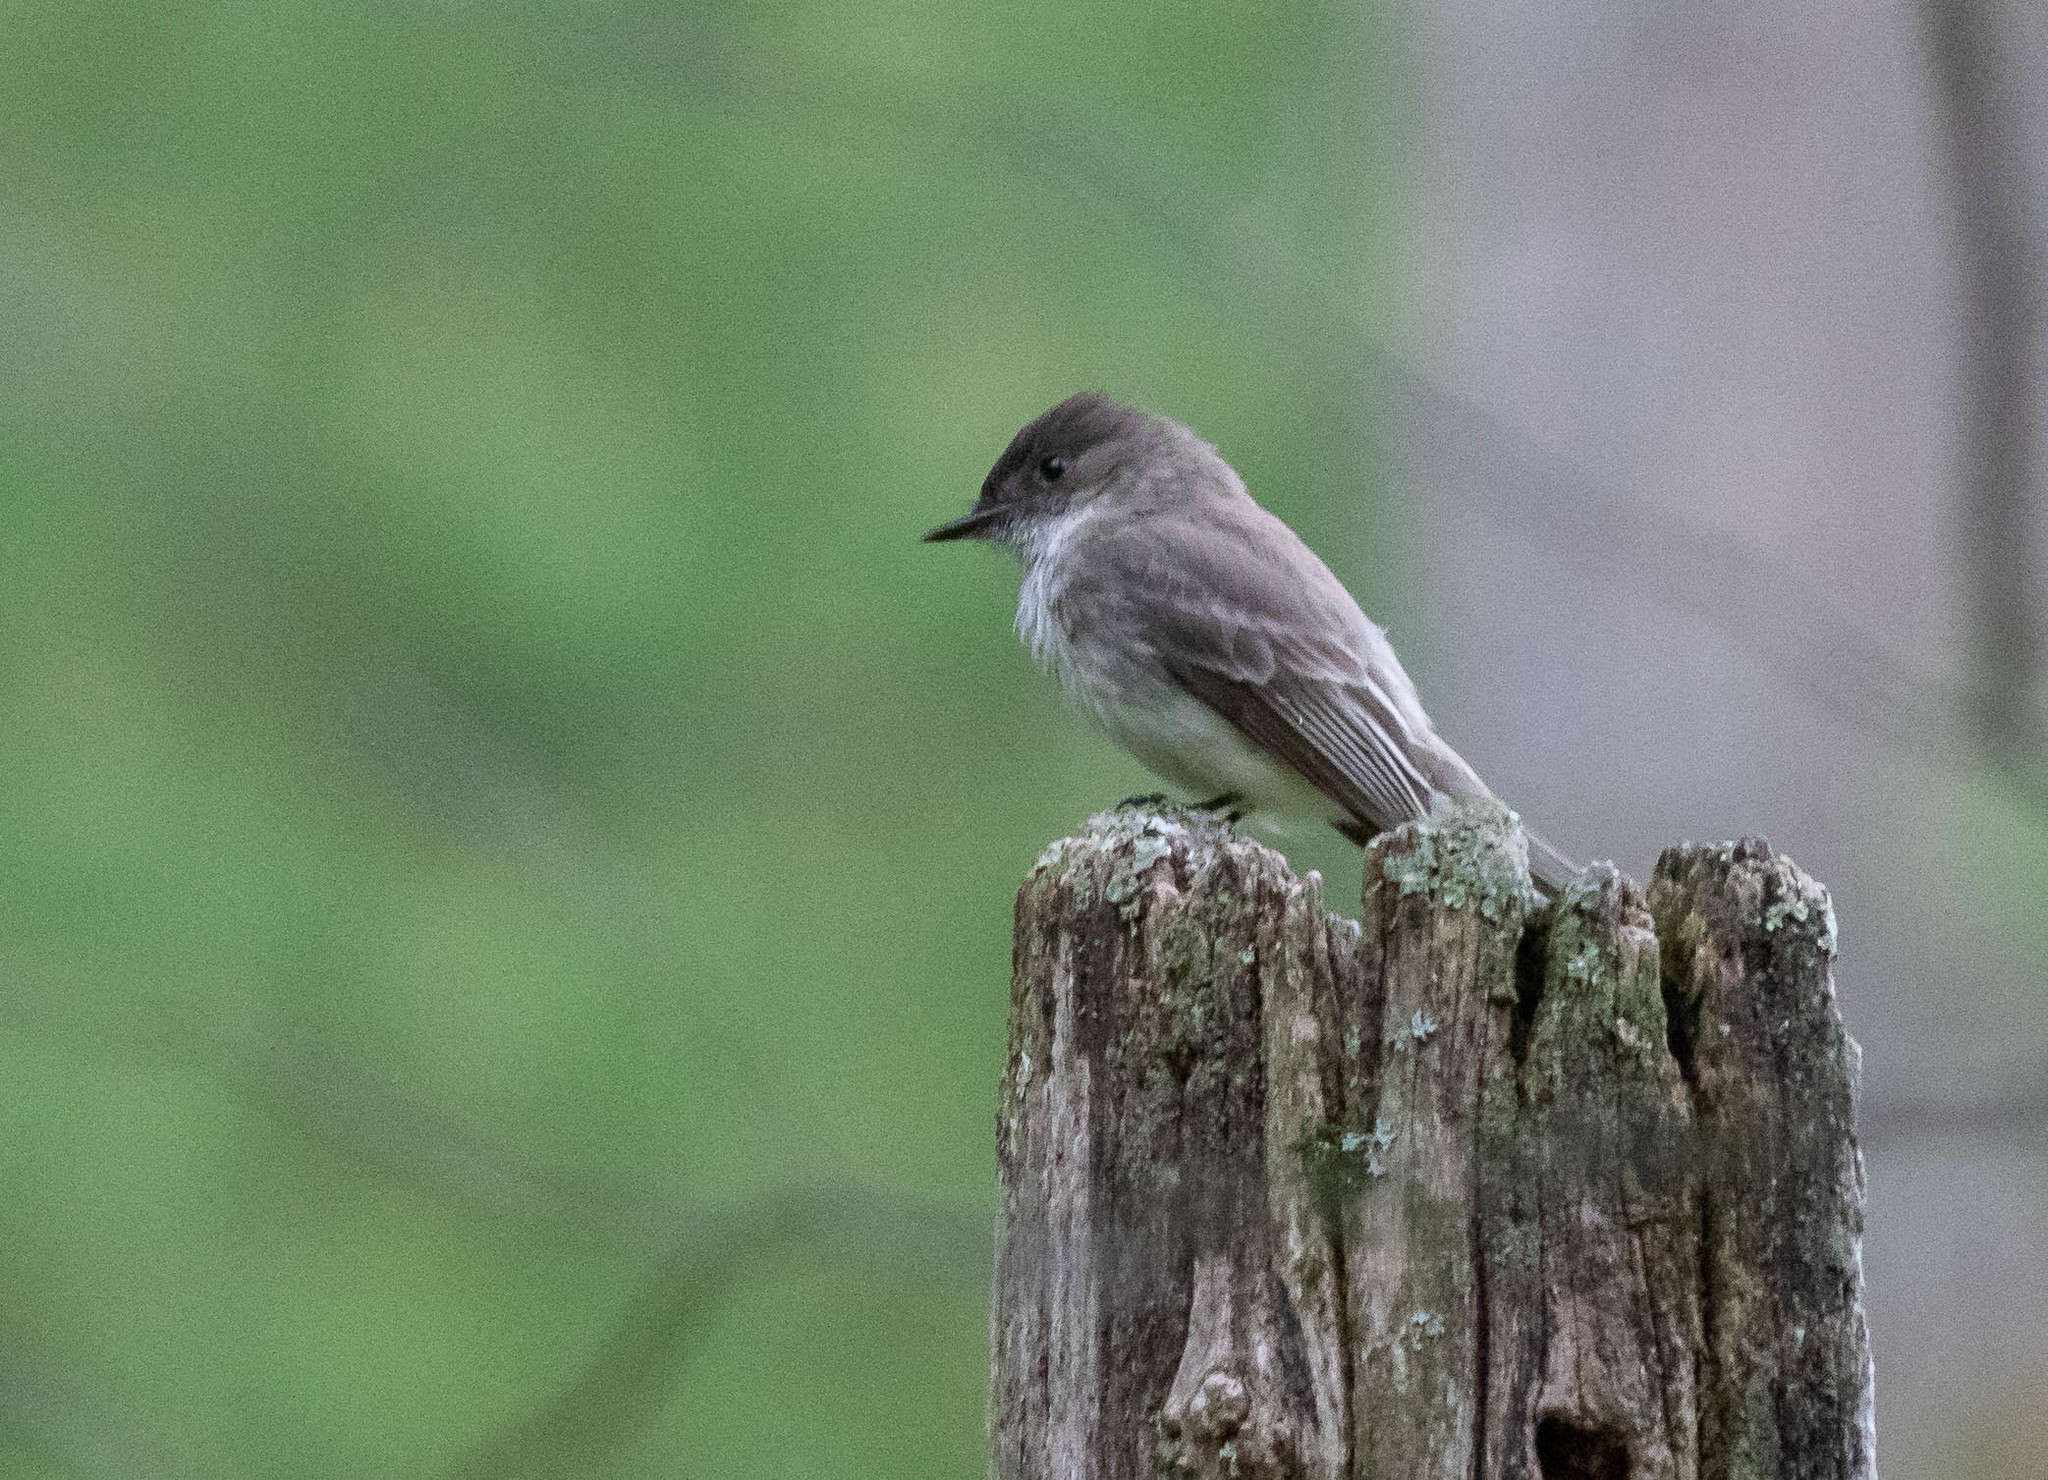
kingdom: Animalia
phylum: Chordata
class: Aves
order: Passeriformes
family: Tyrannidae
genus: Sayornis
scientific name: Sayornis phoebe
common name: Eastern phoebe
